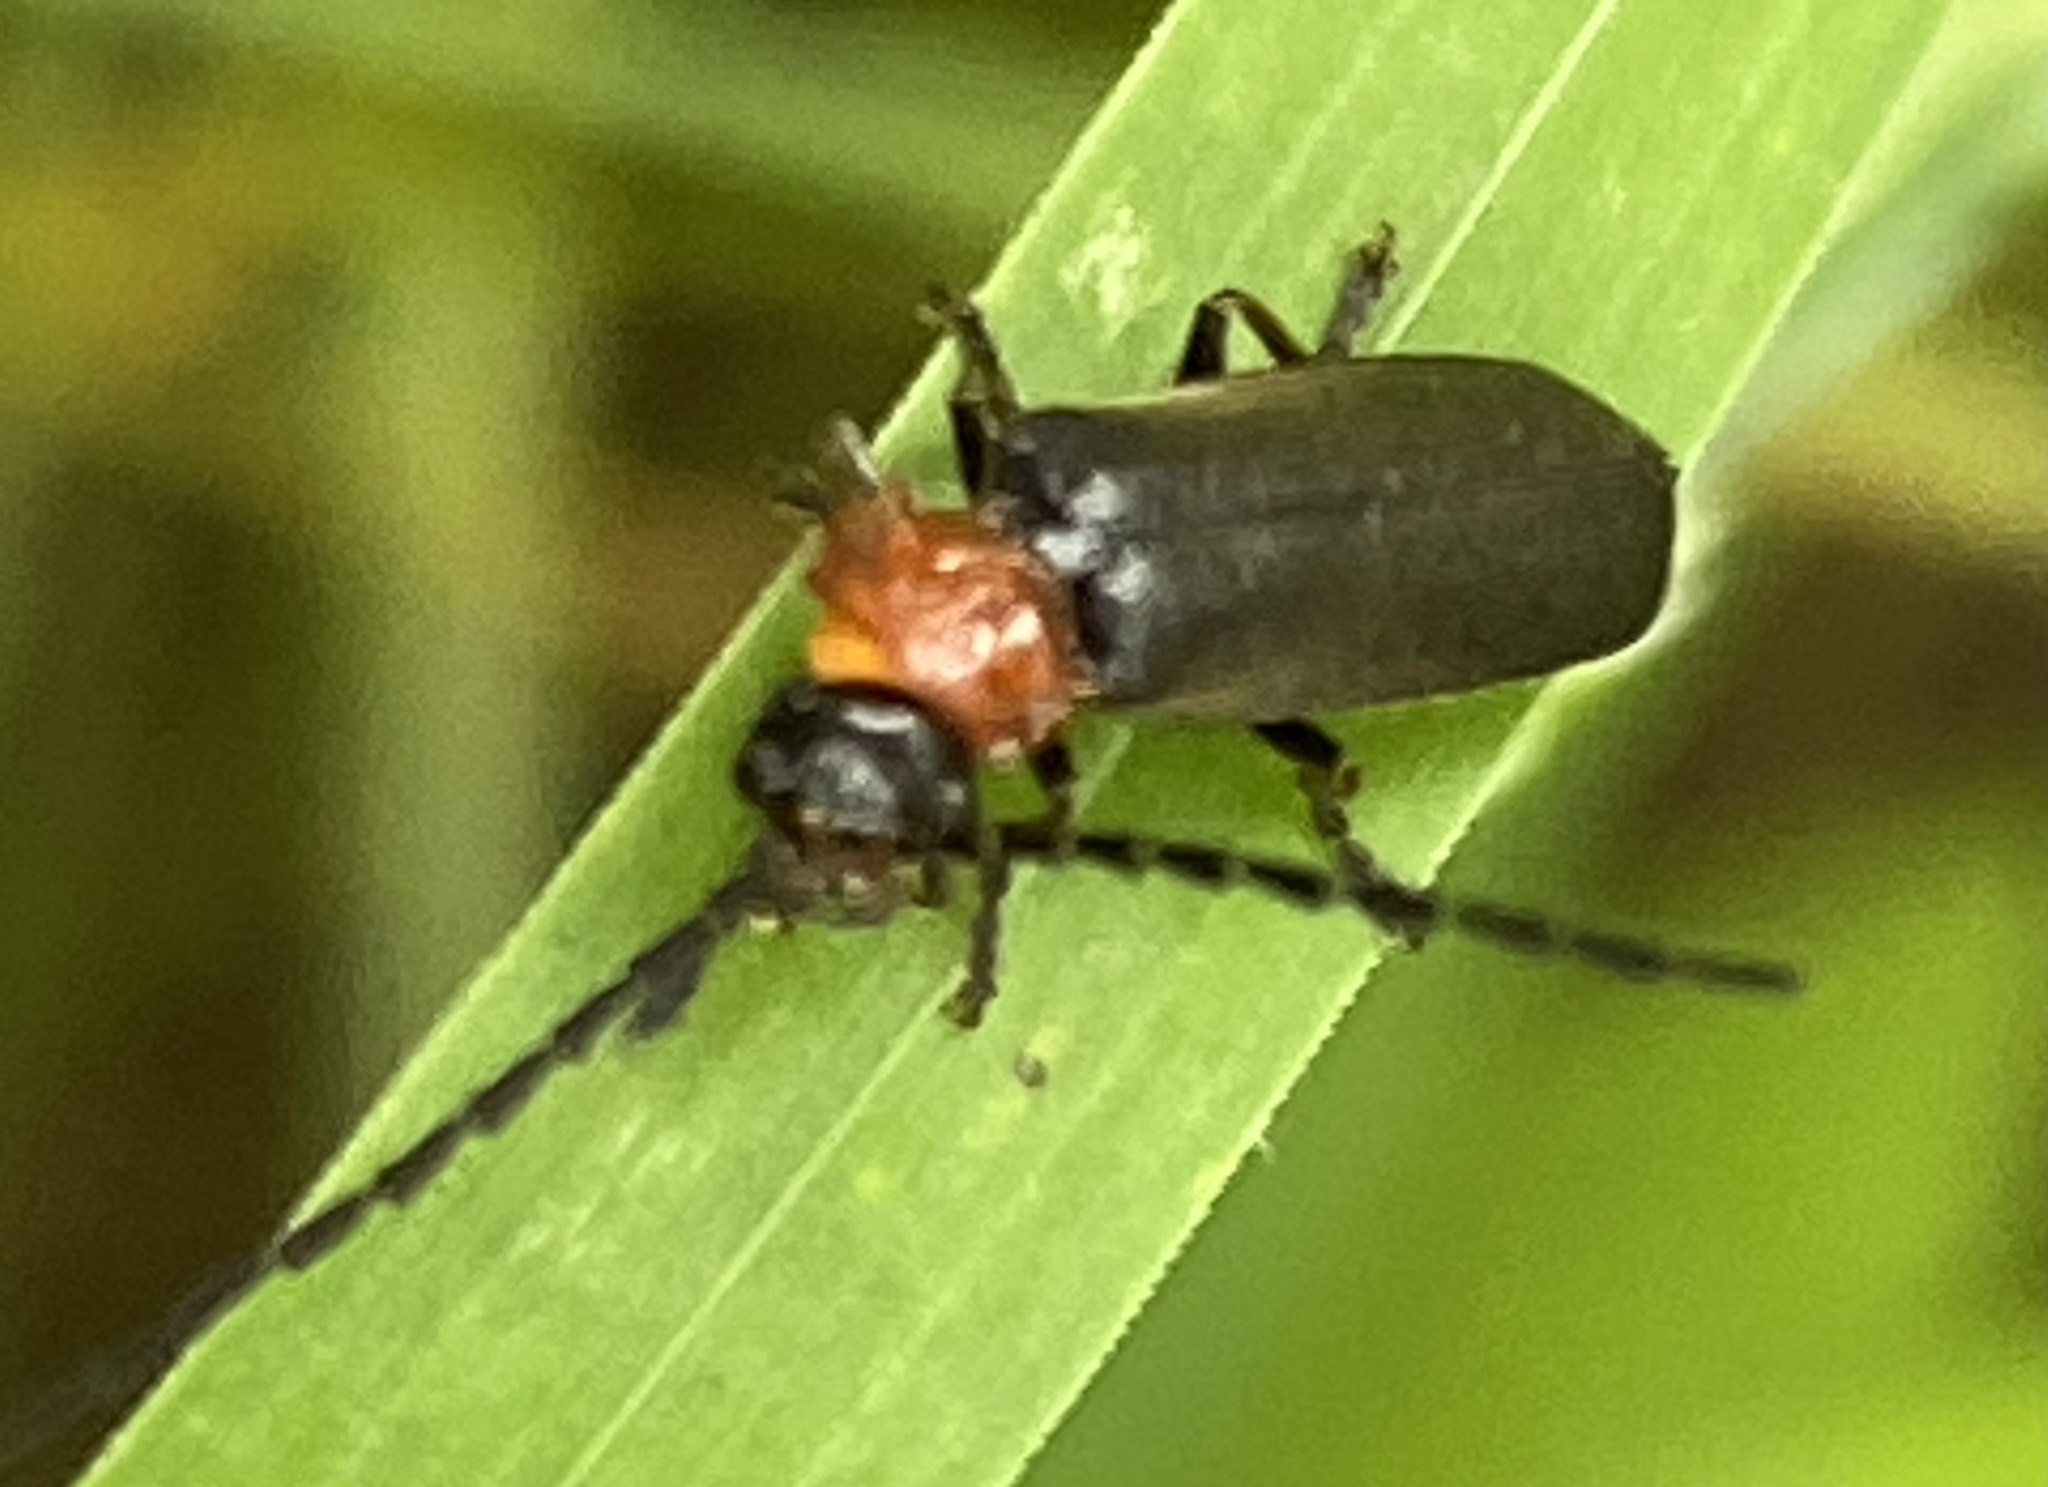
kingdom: Animalia
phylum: Arthropoda
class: Insecta
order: Coleoptera
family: Cantharidae
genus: Crudosilis
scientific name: Crudosilis ruficollis
